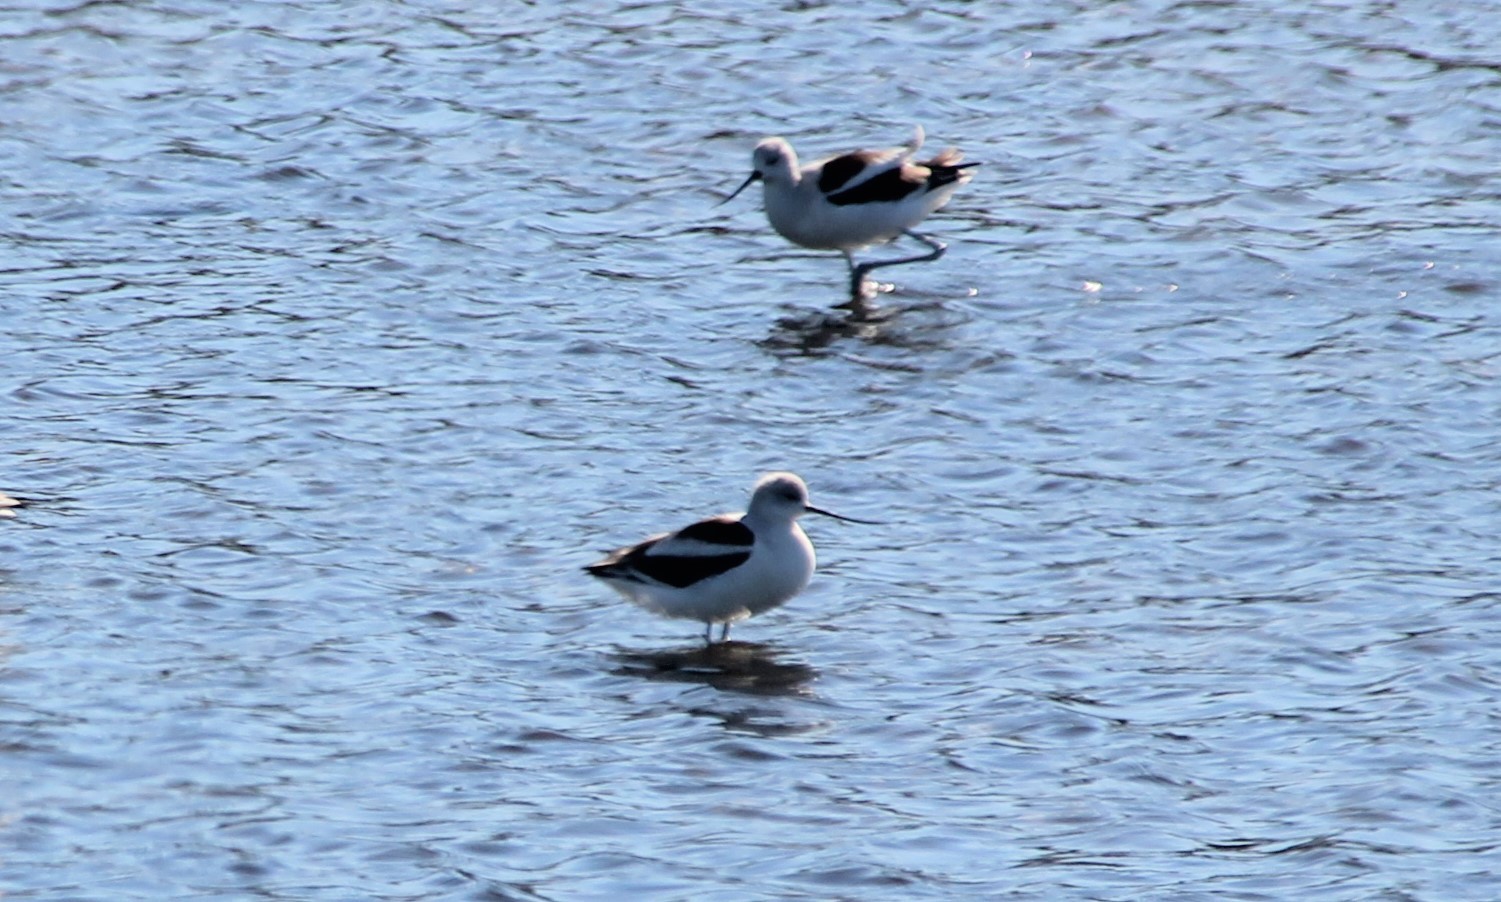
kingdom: Animalia
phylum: Chordata
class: Aves
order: Charadriiformes
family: Recurvirostridae
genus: Recurvirostra
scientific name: Recurvirostra americana
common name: American avocet
